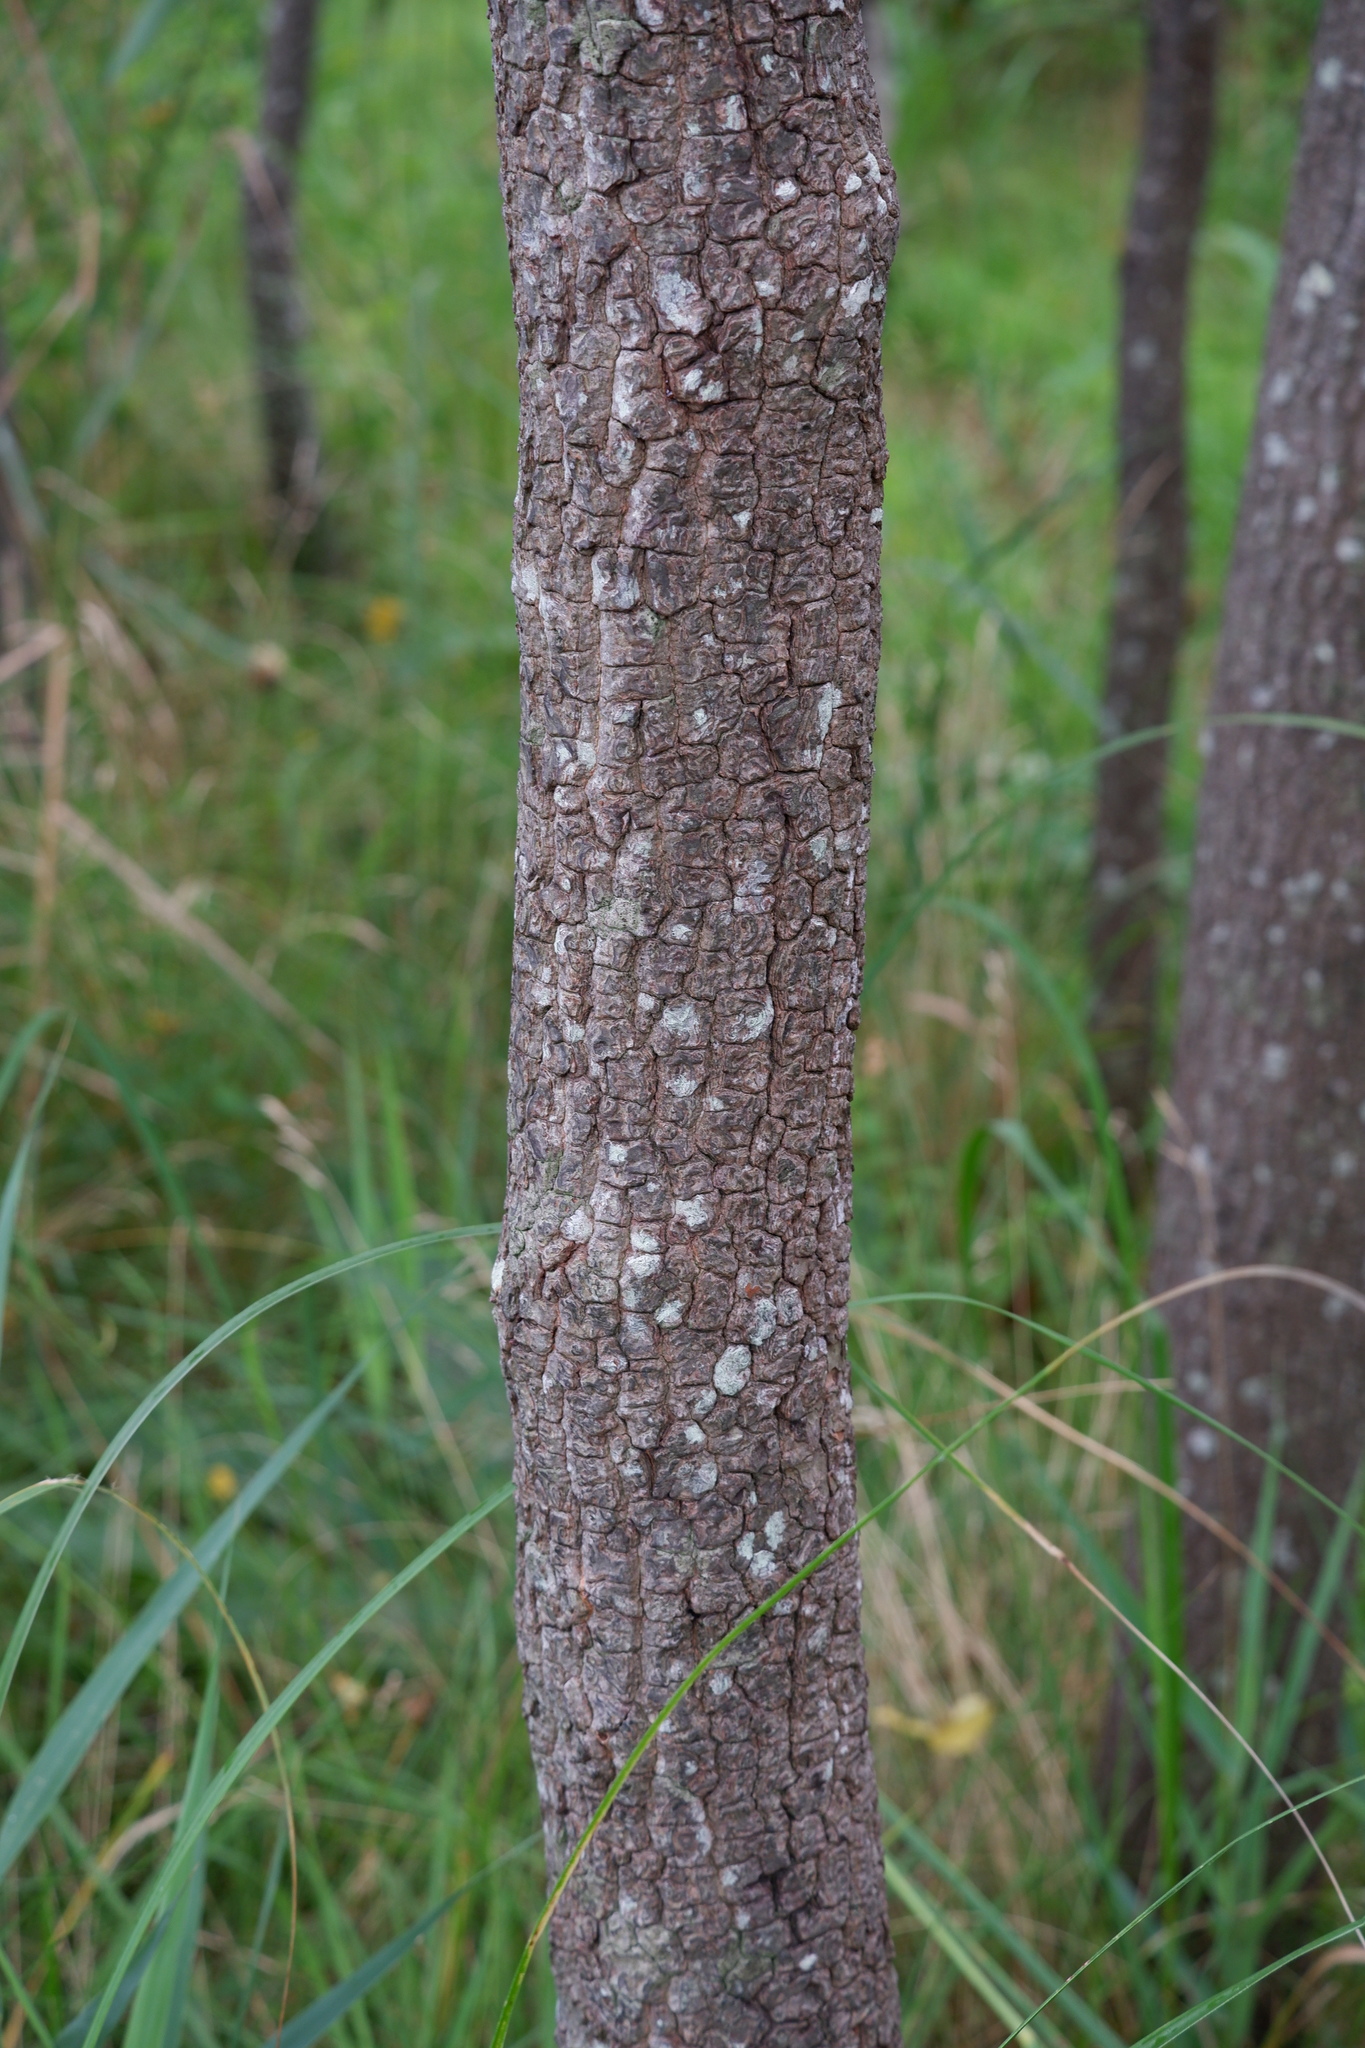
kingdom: Plantae
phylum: Tracheophyta
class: Magnoliopsida
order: Ericales
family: Ebenaceae
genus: Diospyros
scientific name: Diospyros virginiana
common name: Persimmon
